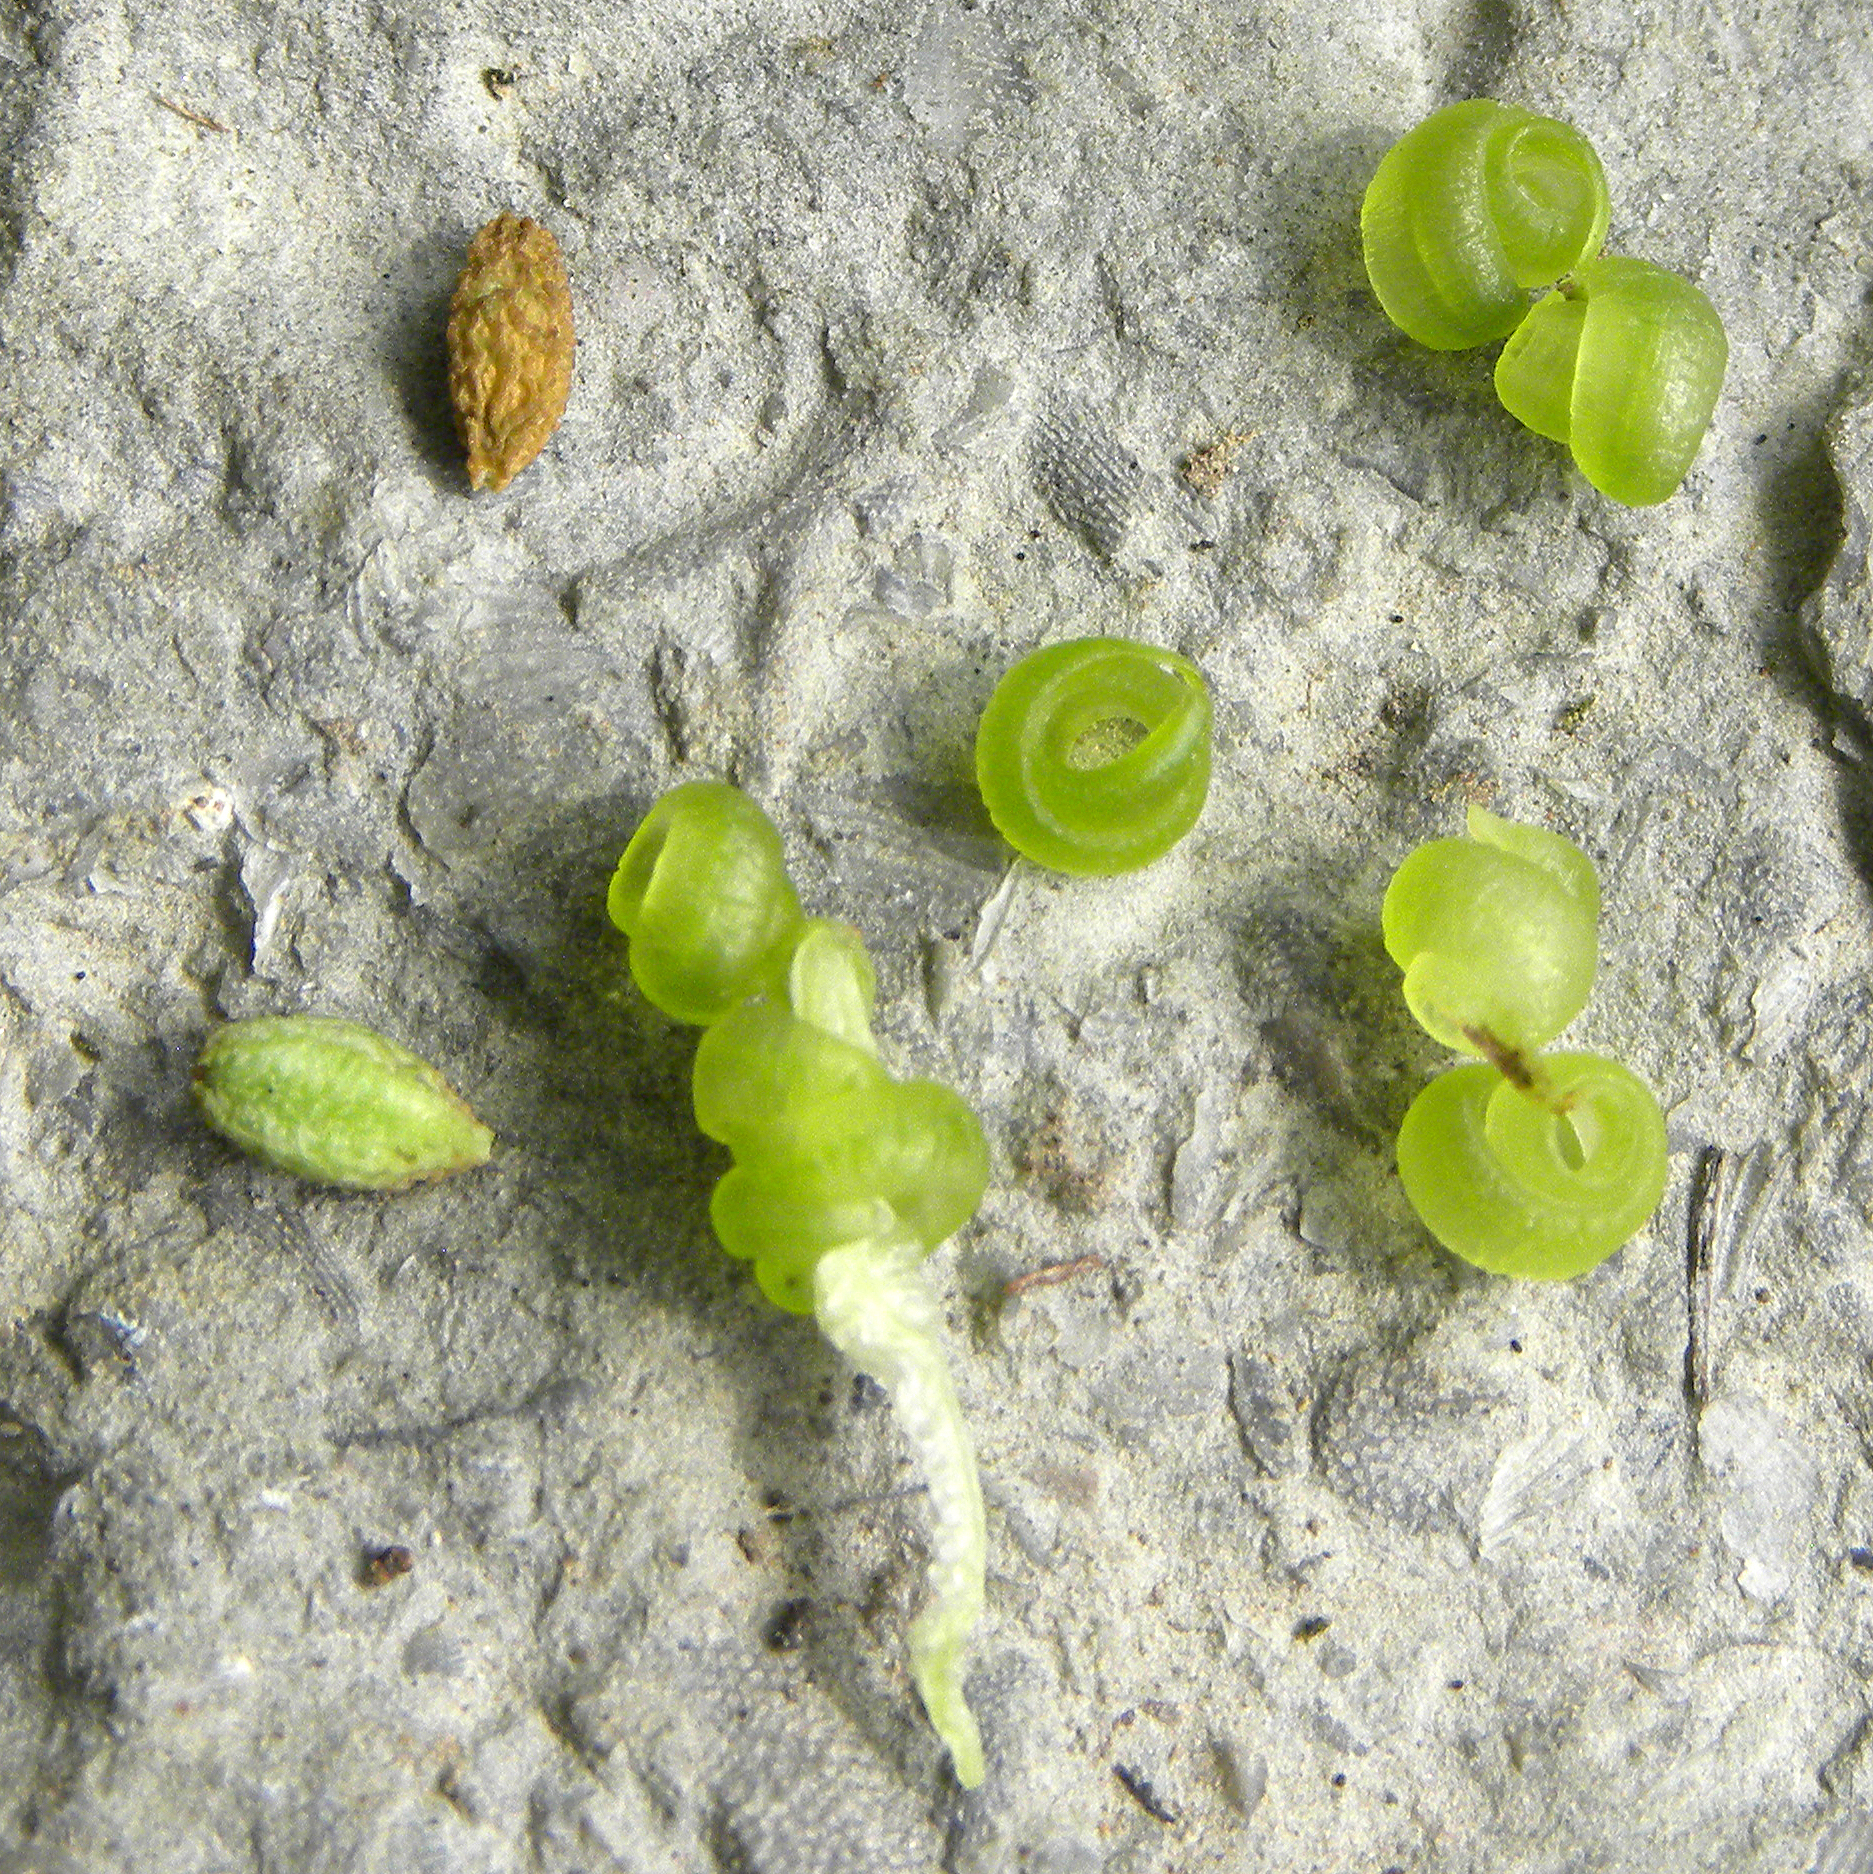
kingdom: Plantae
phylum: Tracheophyta
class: Magnoliopsida
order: Ericales
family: Balsaminaceae
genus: Impatiens
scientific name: Impatiens capensis
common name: Orange balsam
